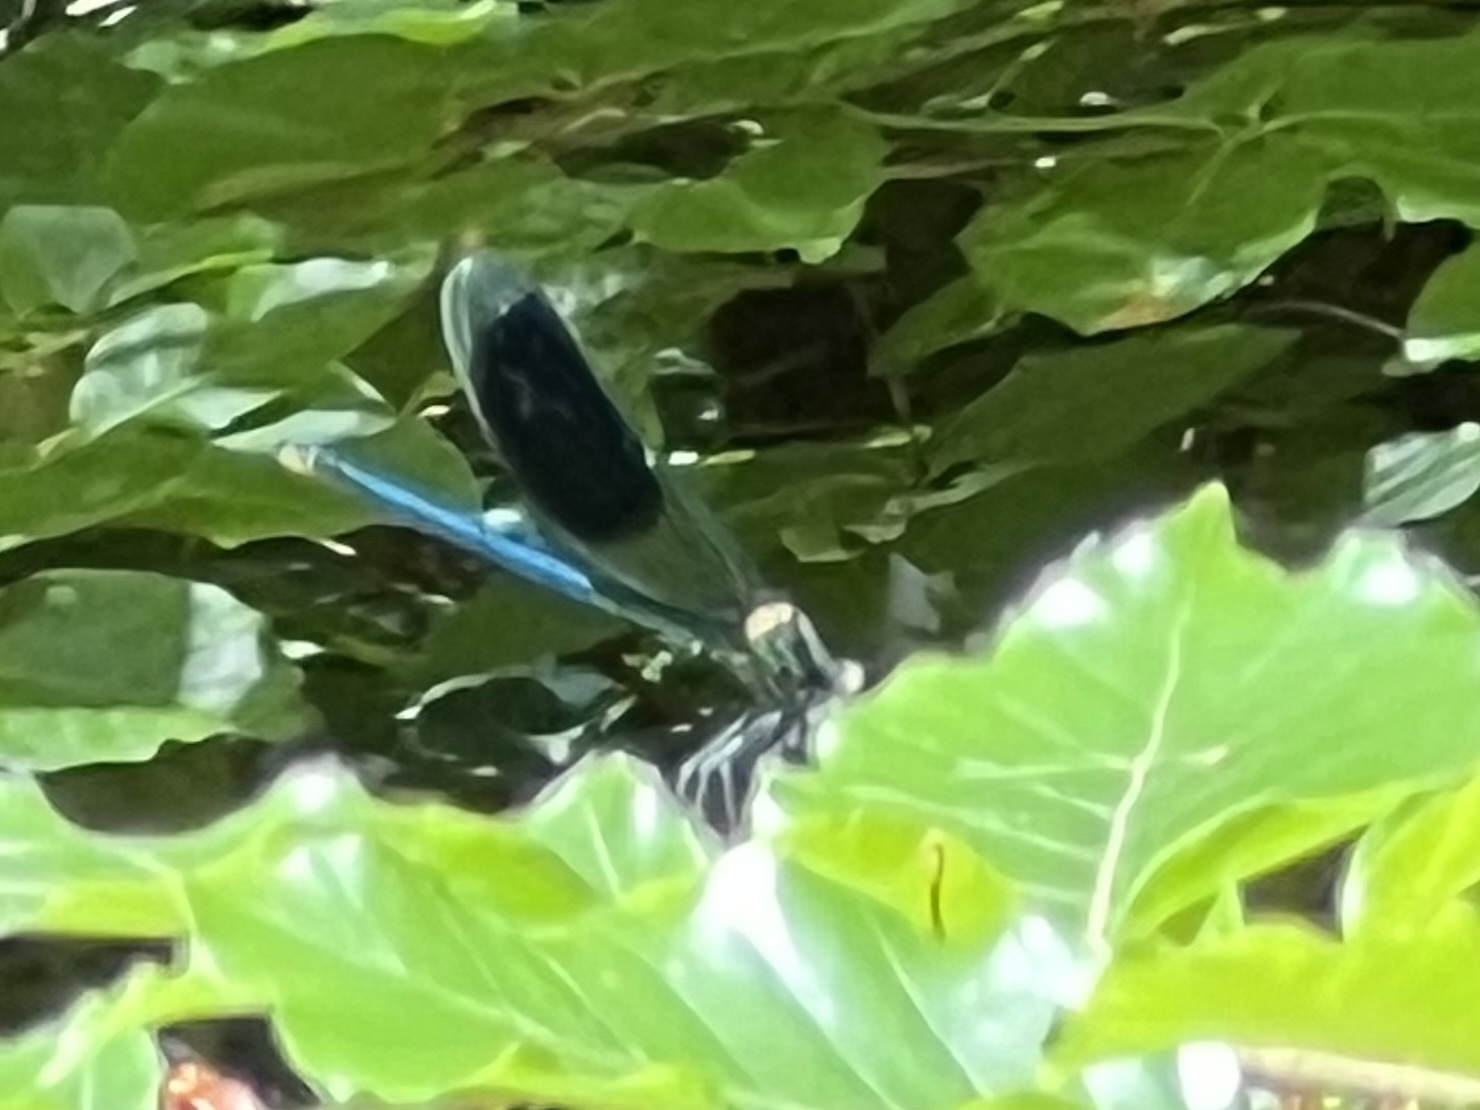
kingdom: Animalia
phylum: Arthropoda
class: Insecta
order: Odonata
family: Calopterygidae
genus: Calopteryx
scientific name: Calopteryx splendens
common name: Banded demoiselle
